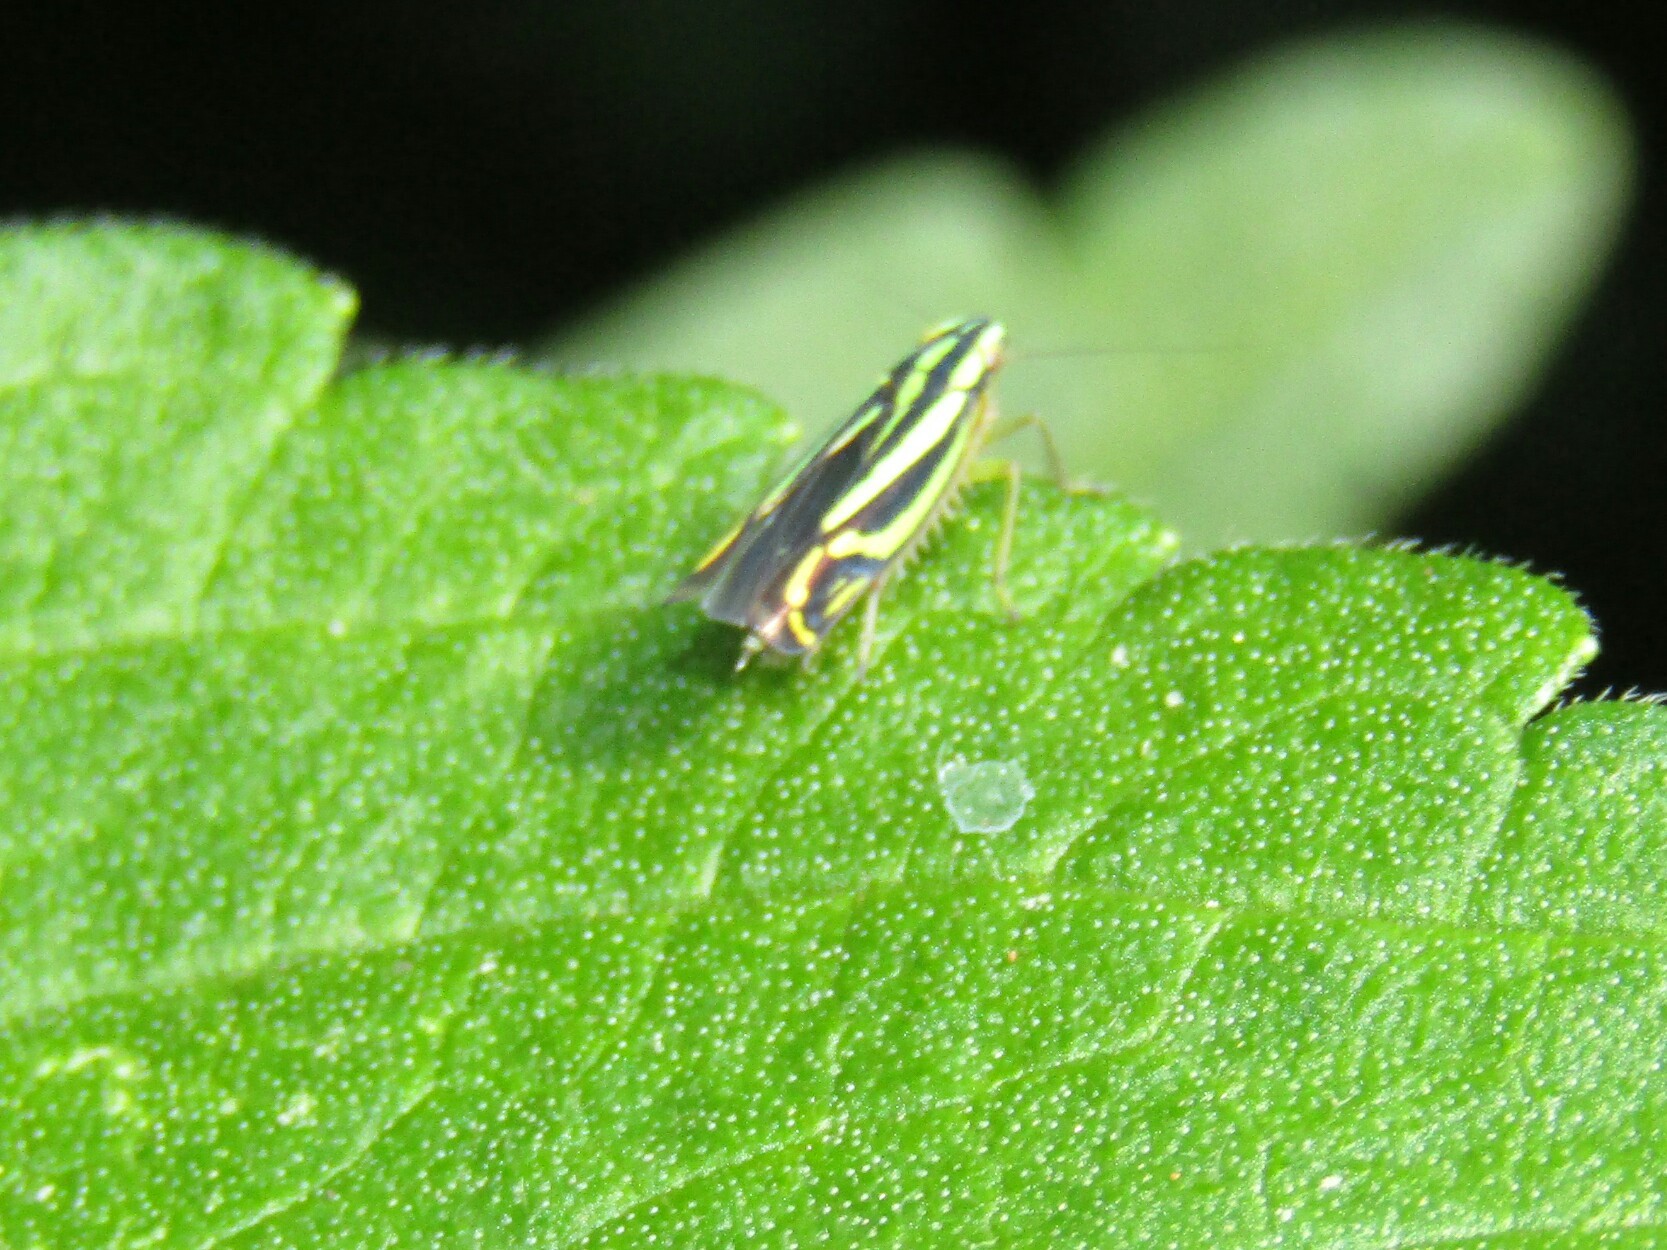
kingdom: Animalia
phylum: Arthropoda
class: Insecta
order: Hemiptera
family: Cicadellidae
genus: Sibovia
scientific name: Sibovia sagata
